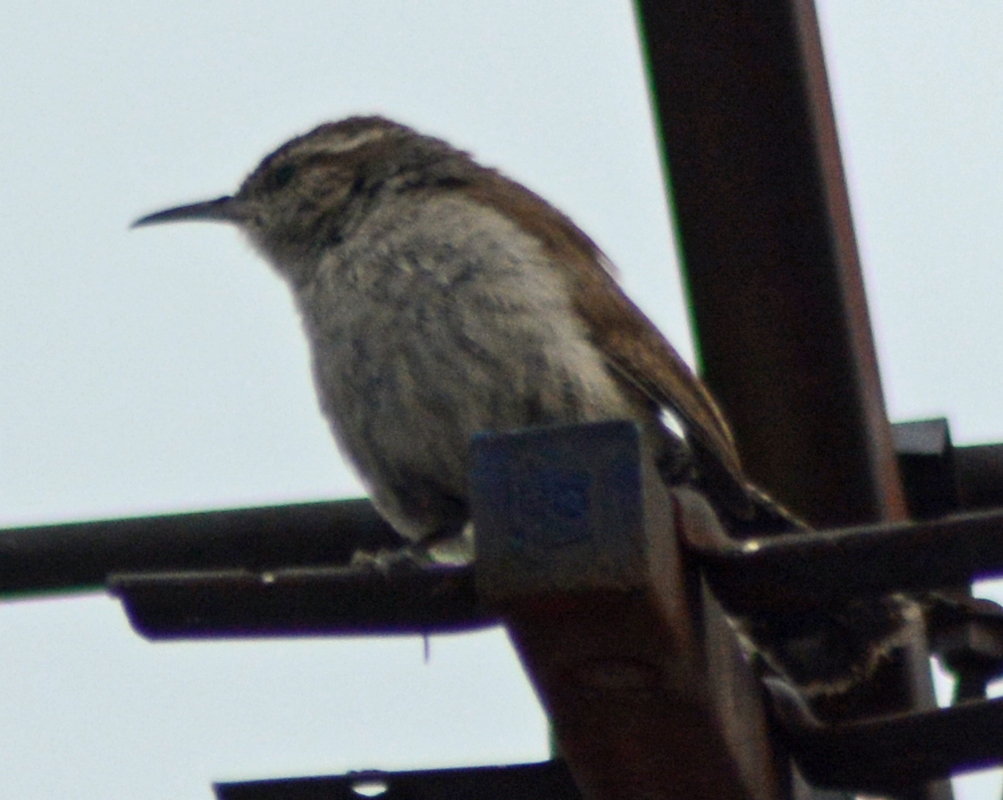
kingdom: Animalia
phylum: Chordata
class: Aves
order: Passeriformes
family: Troglodytidae
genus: Thryomanes
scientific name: Thryomanes bewickii
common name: Bewick's wren
